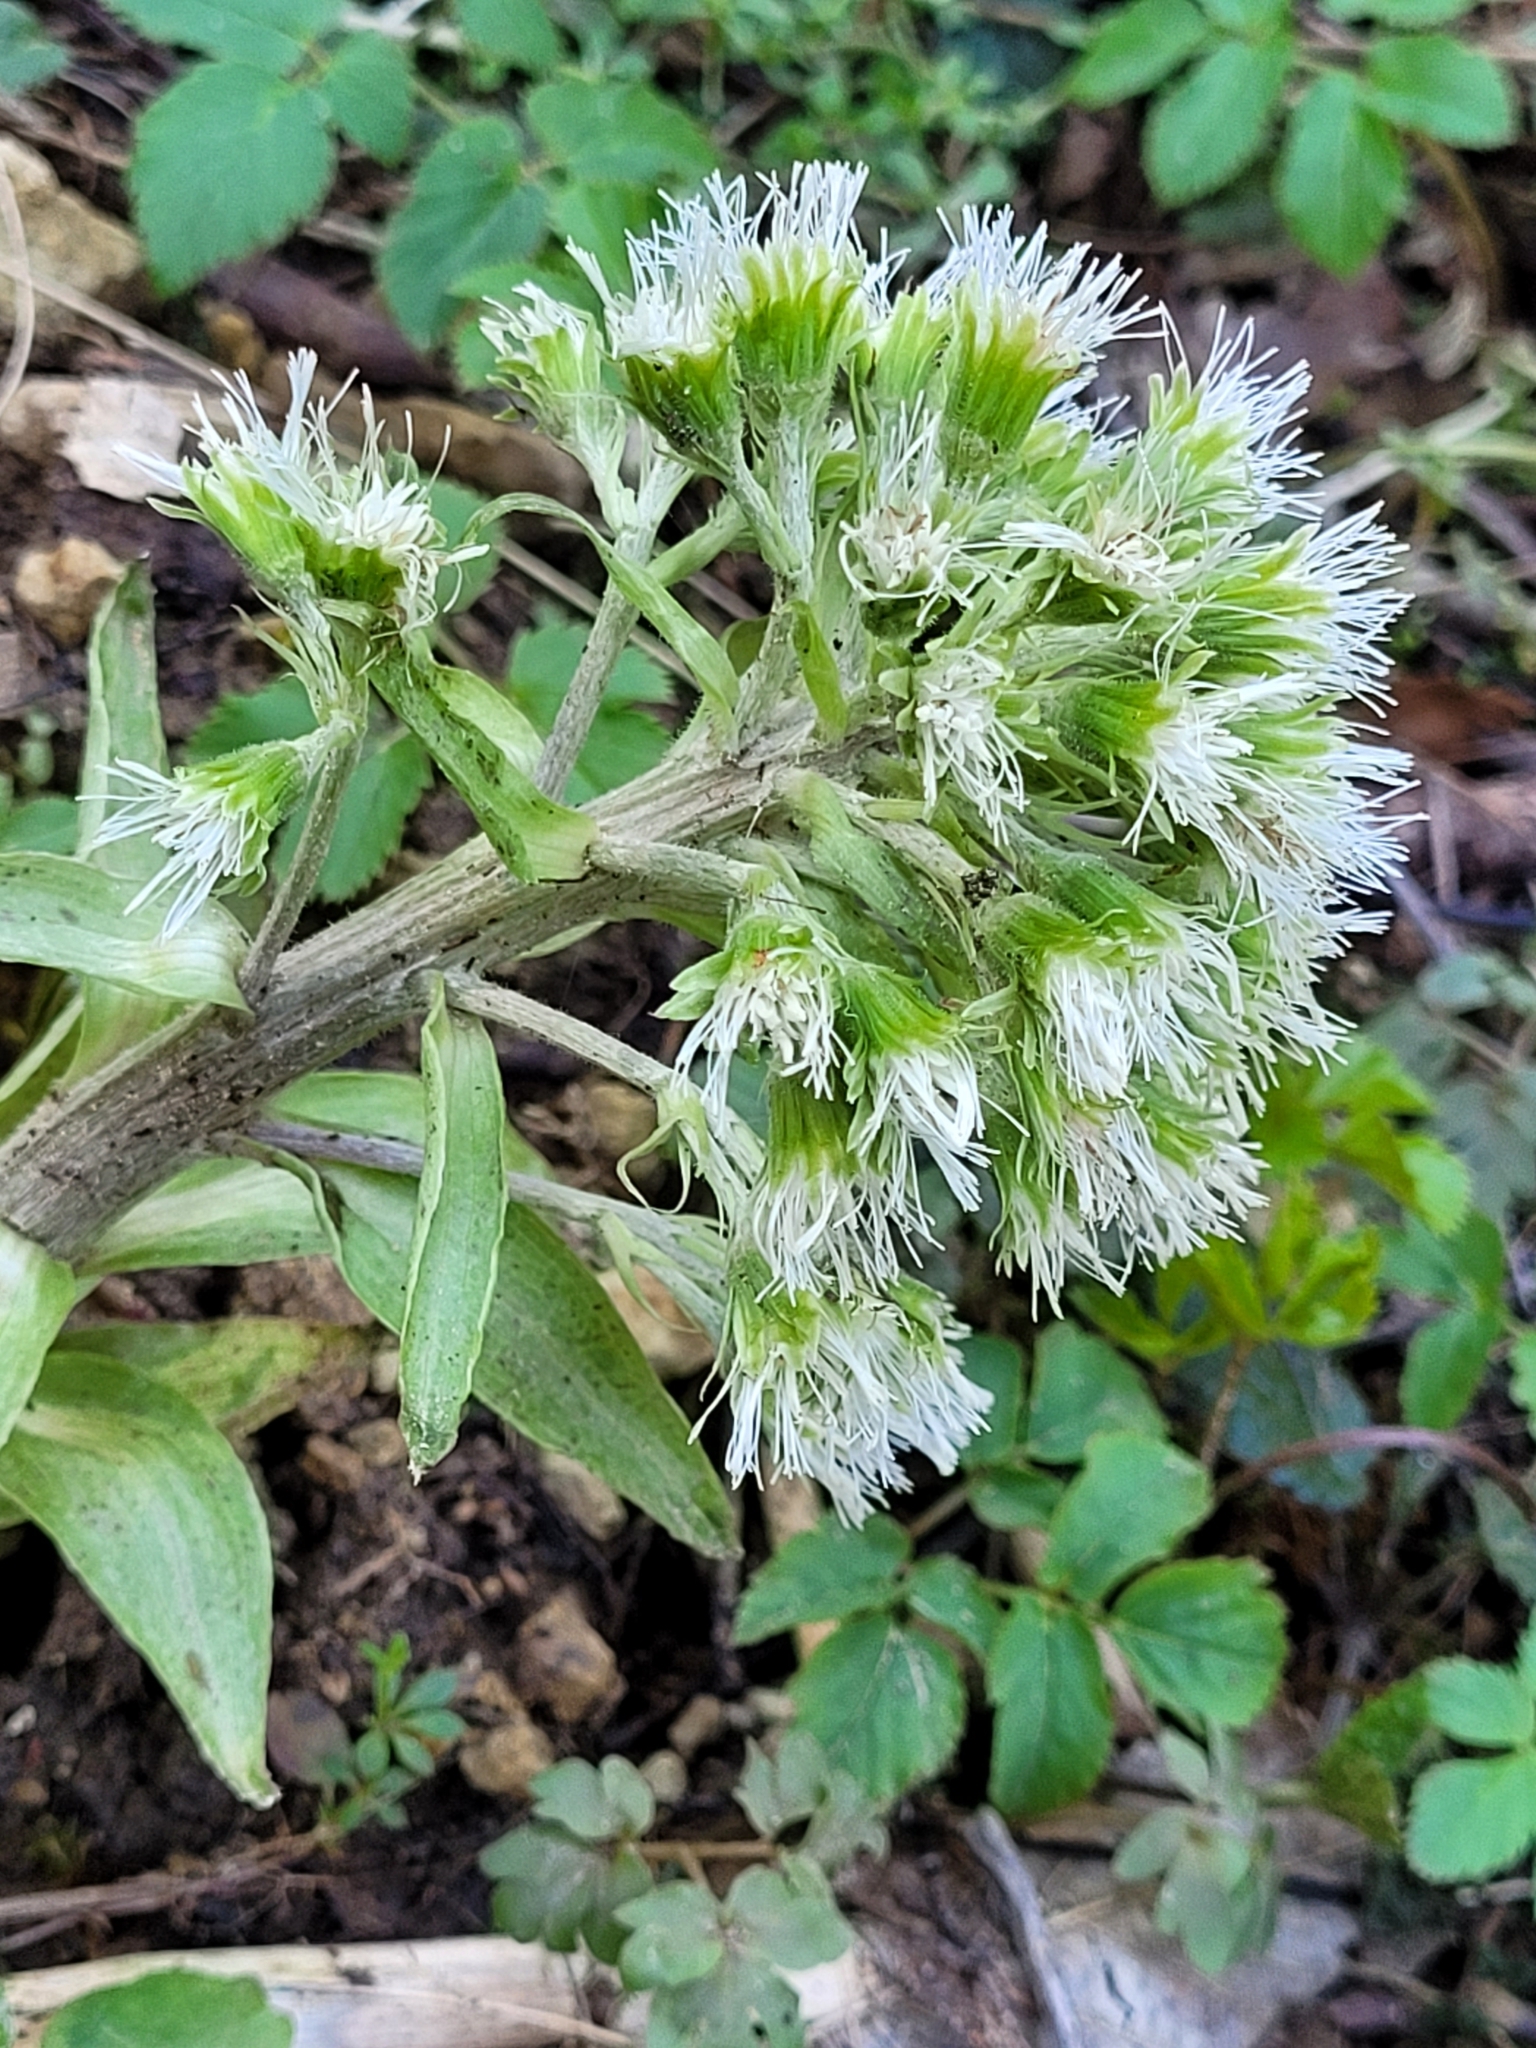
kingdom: Plantae
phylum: Tracheophyta
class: Magnoliopsida
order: Asterales
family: Asteraceae
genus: Petasites
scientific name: Petasites albus
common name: White butterbur
